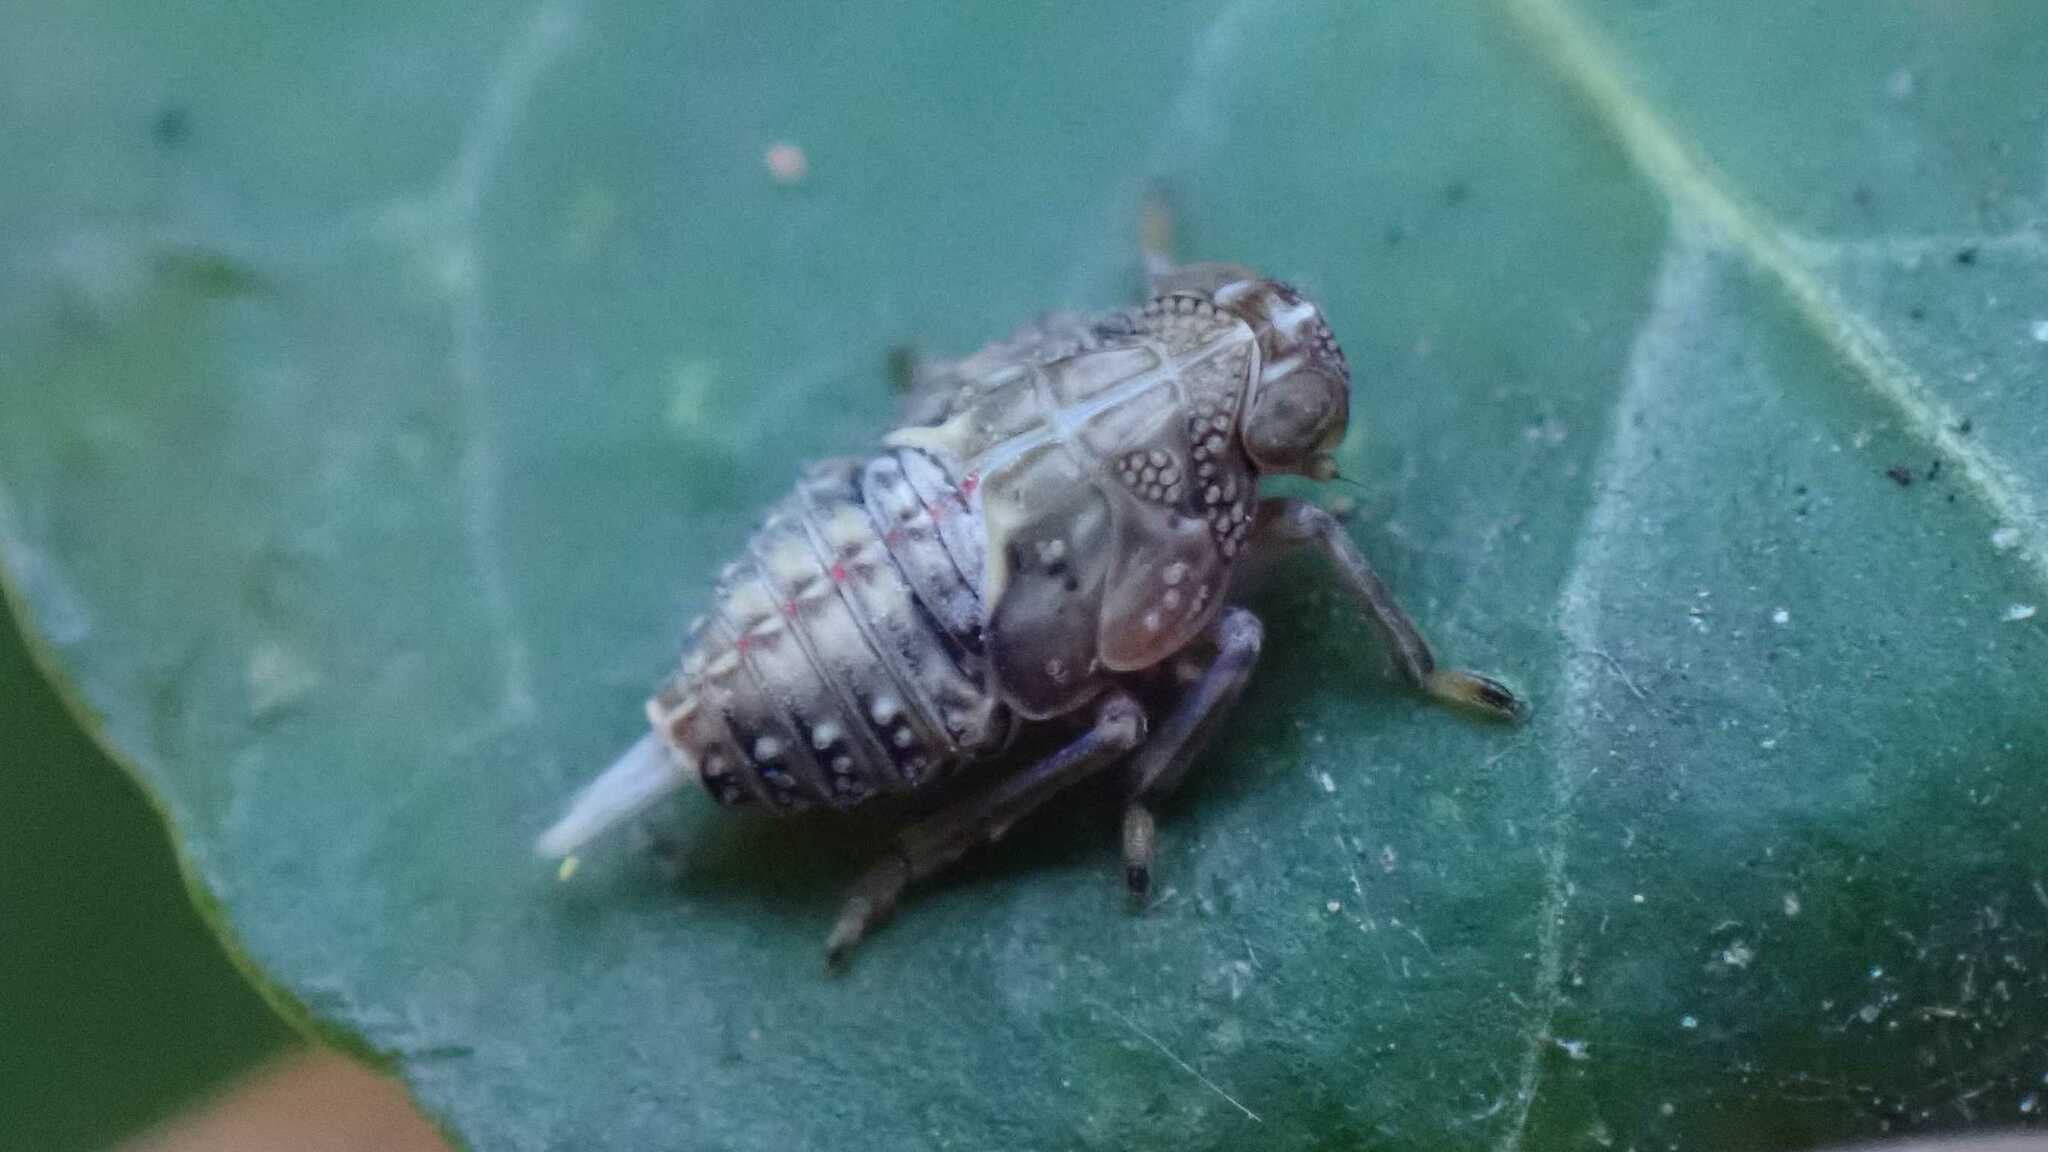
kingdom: Animalia
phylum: Arthropoda
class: Insecta
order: Hemiptera
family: Issidae
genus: Issus
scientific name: Issus coleoptratus
